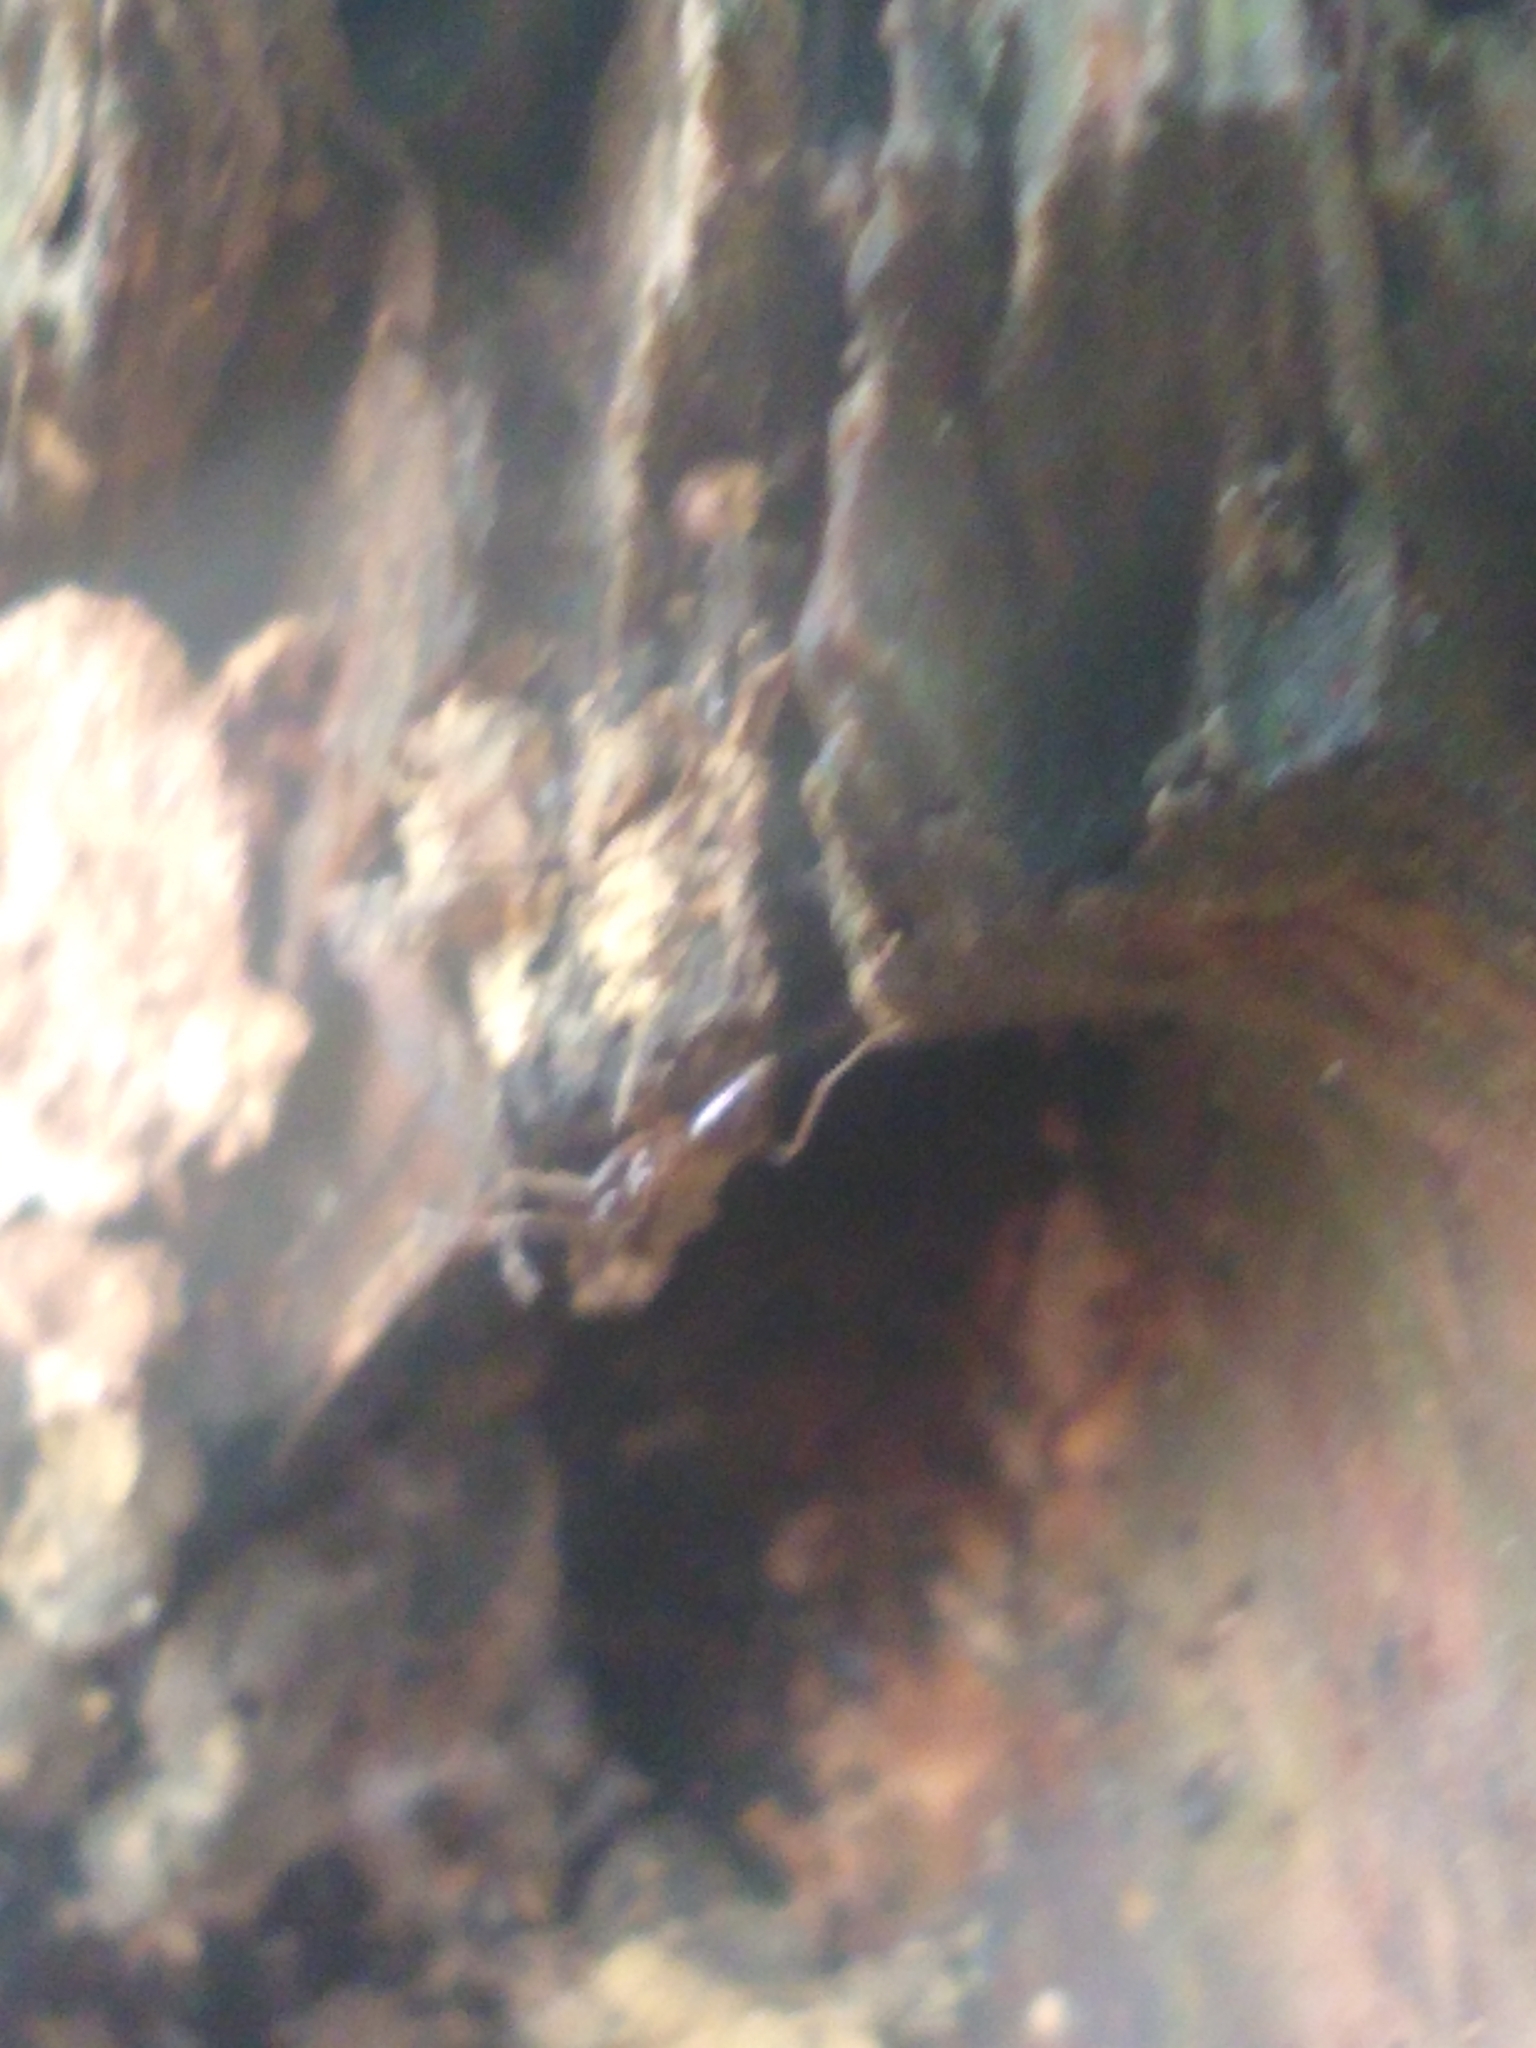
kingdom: Animalia
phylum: Arthropoda
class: Insecta
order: Hymenoptera
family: Formicidae
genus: Prenolepis
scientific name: Prenolepis imparis
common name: Small honey ant
